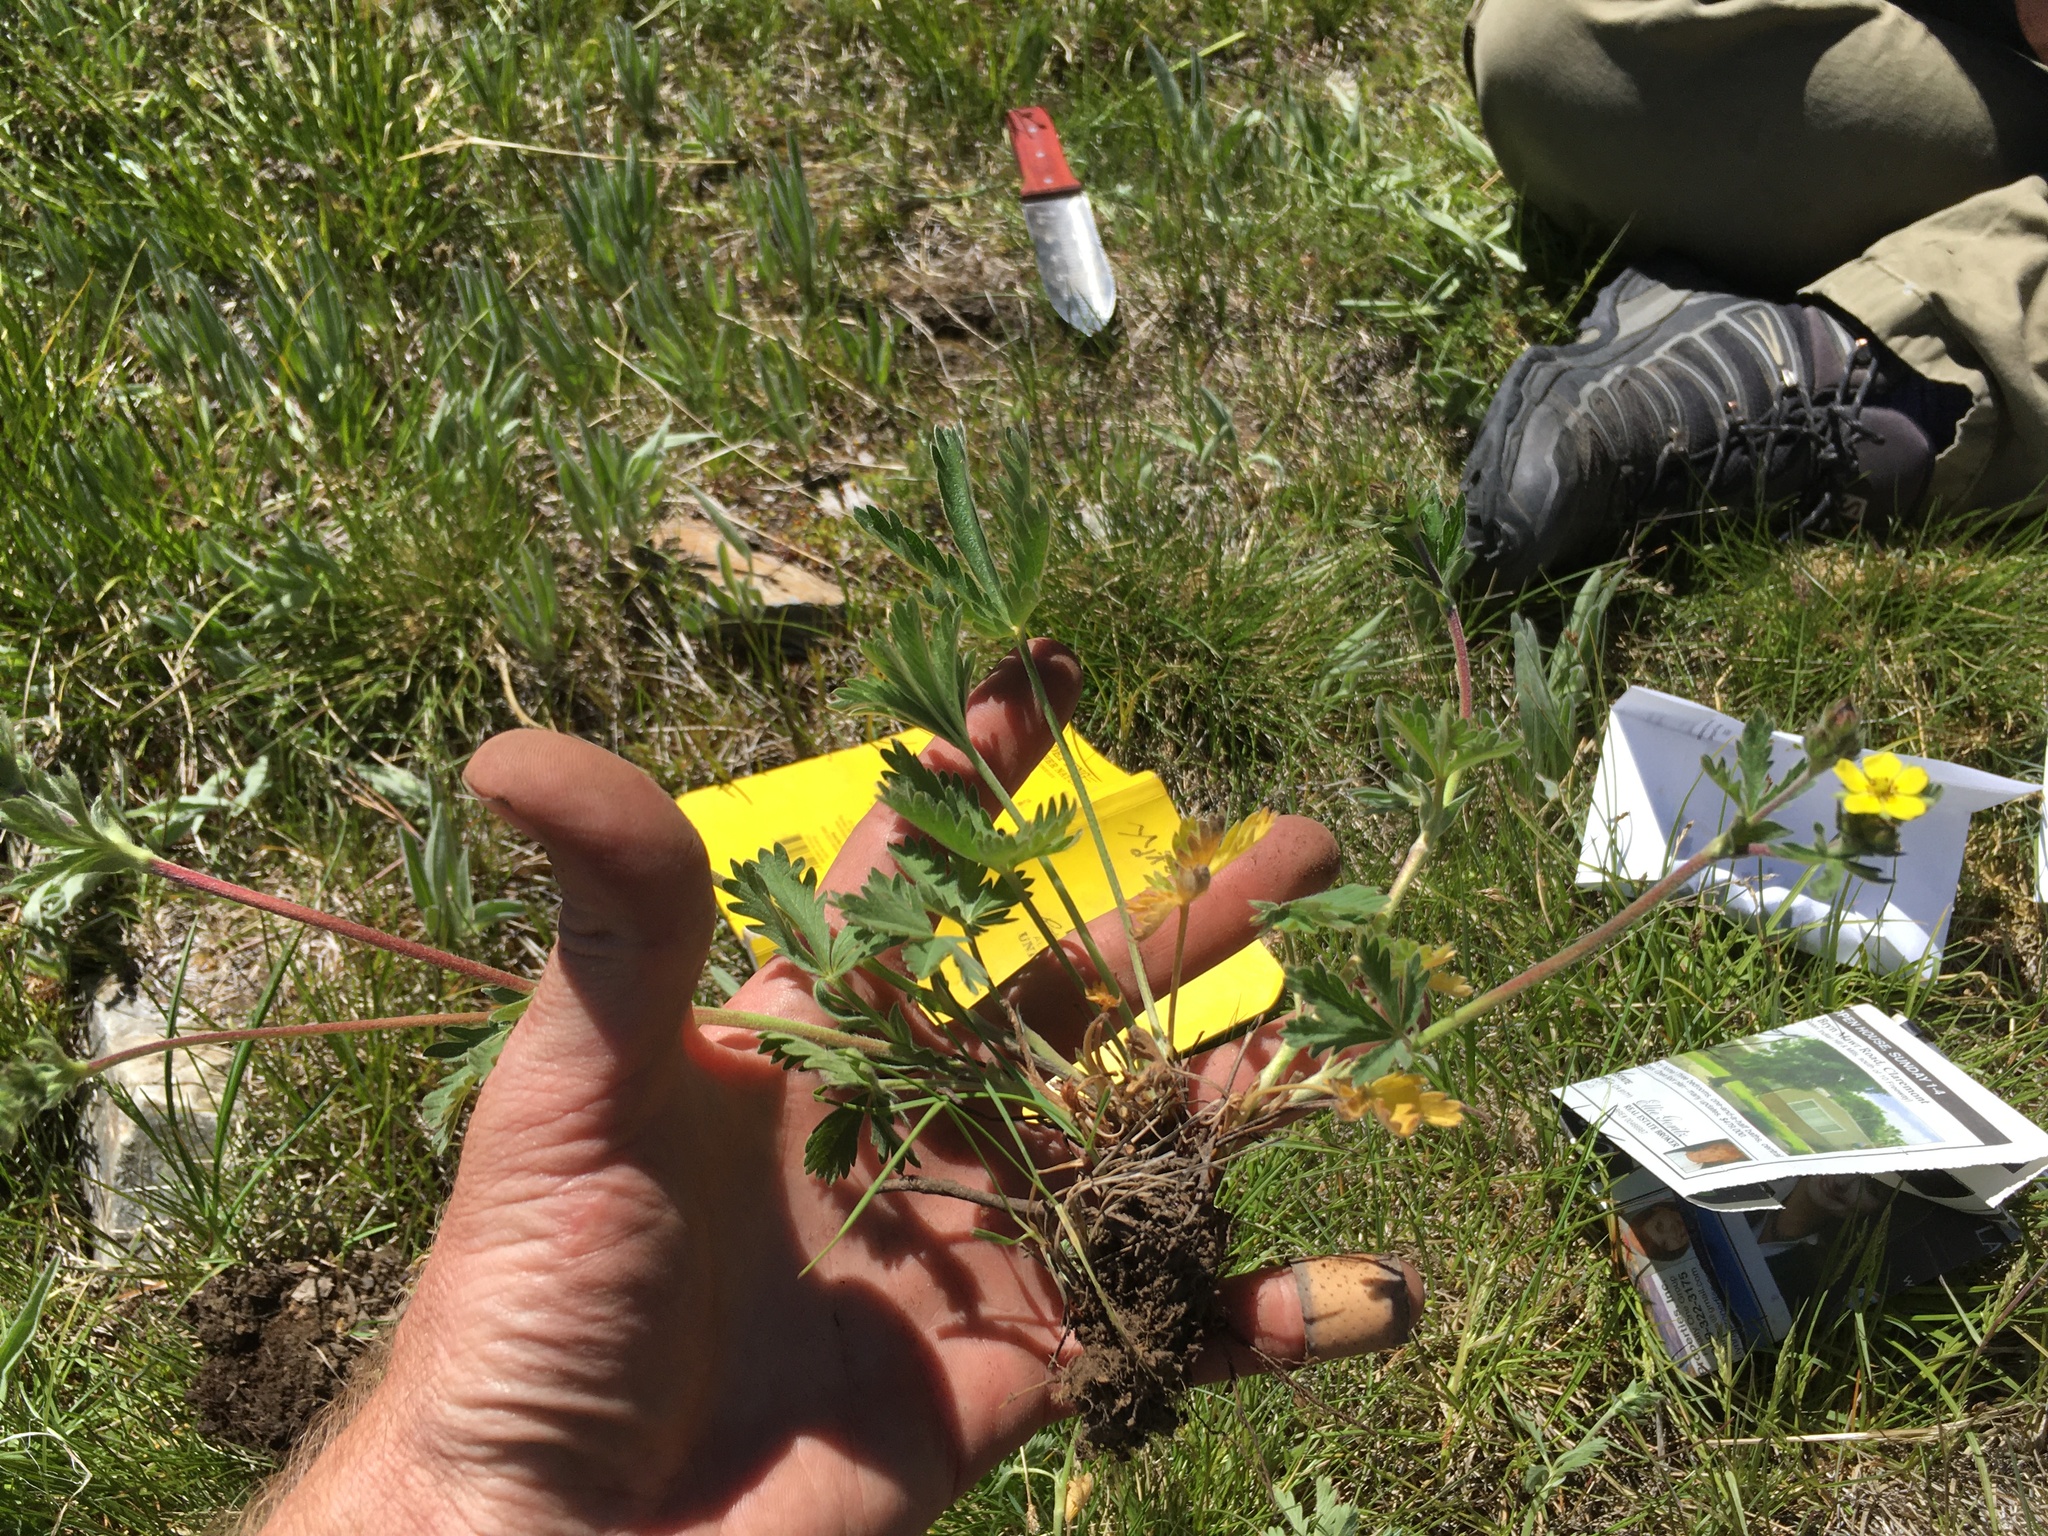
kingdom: Plantae
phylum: Tracheophyta
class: Magnoliopsida
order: Rosales
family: Rosaceae
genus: Potentilla
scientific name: Potentilla gracilis
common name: Graceful cinquefoil
